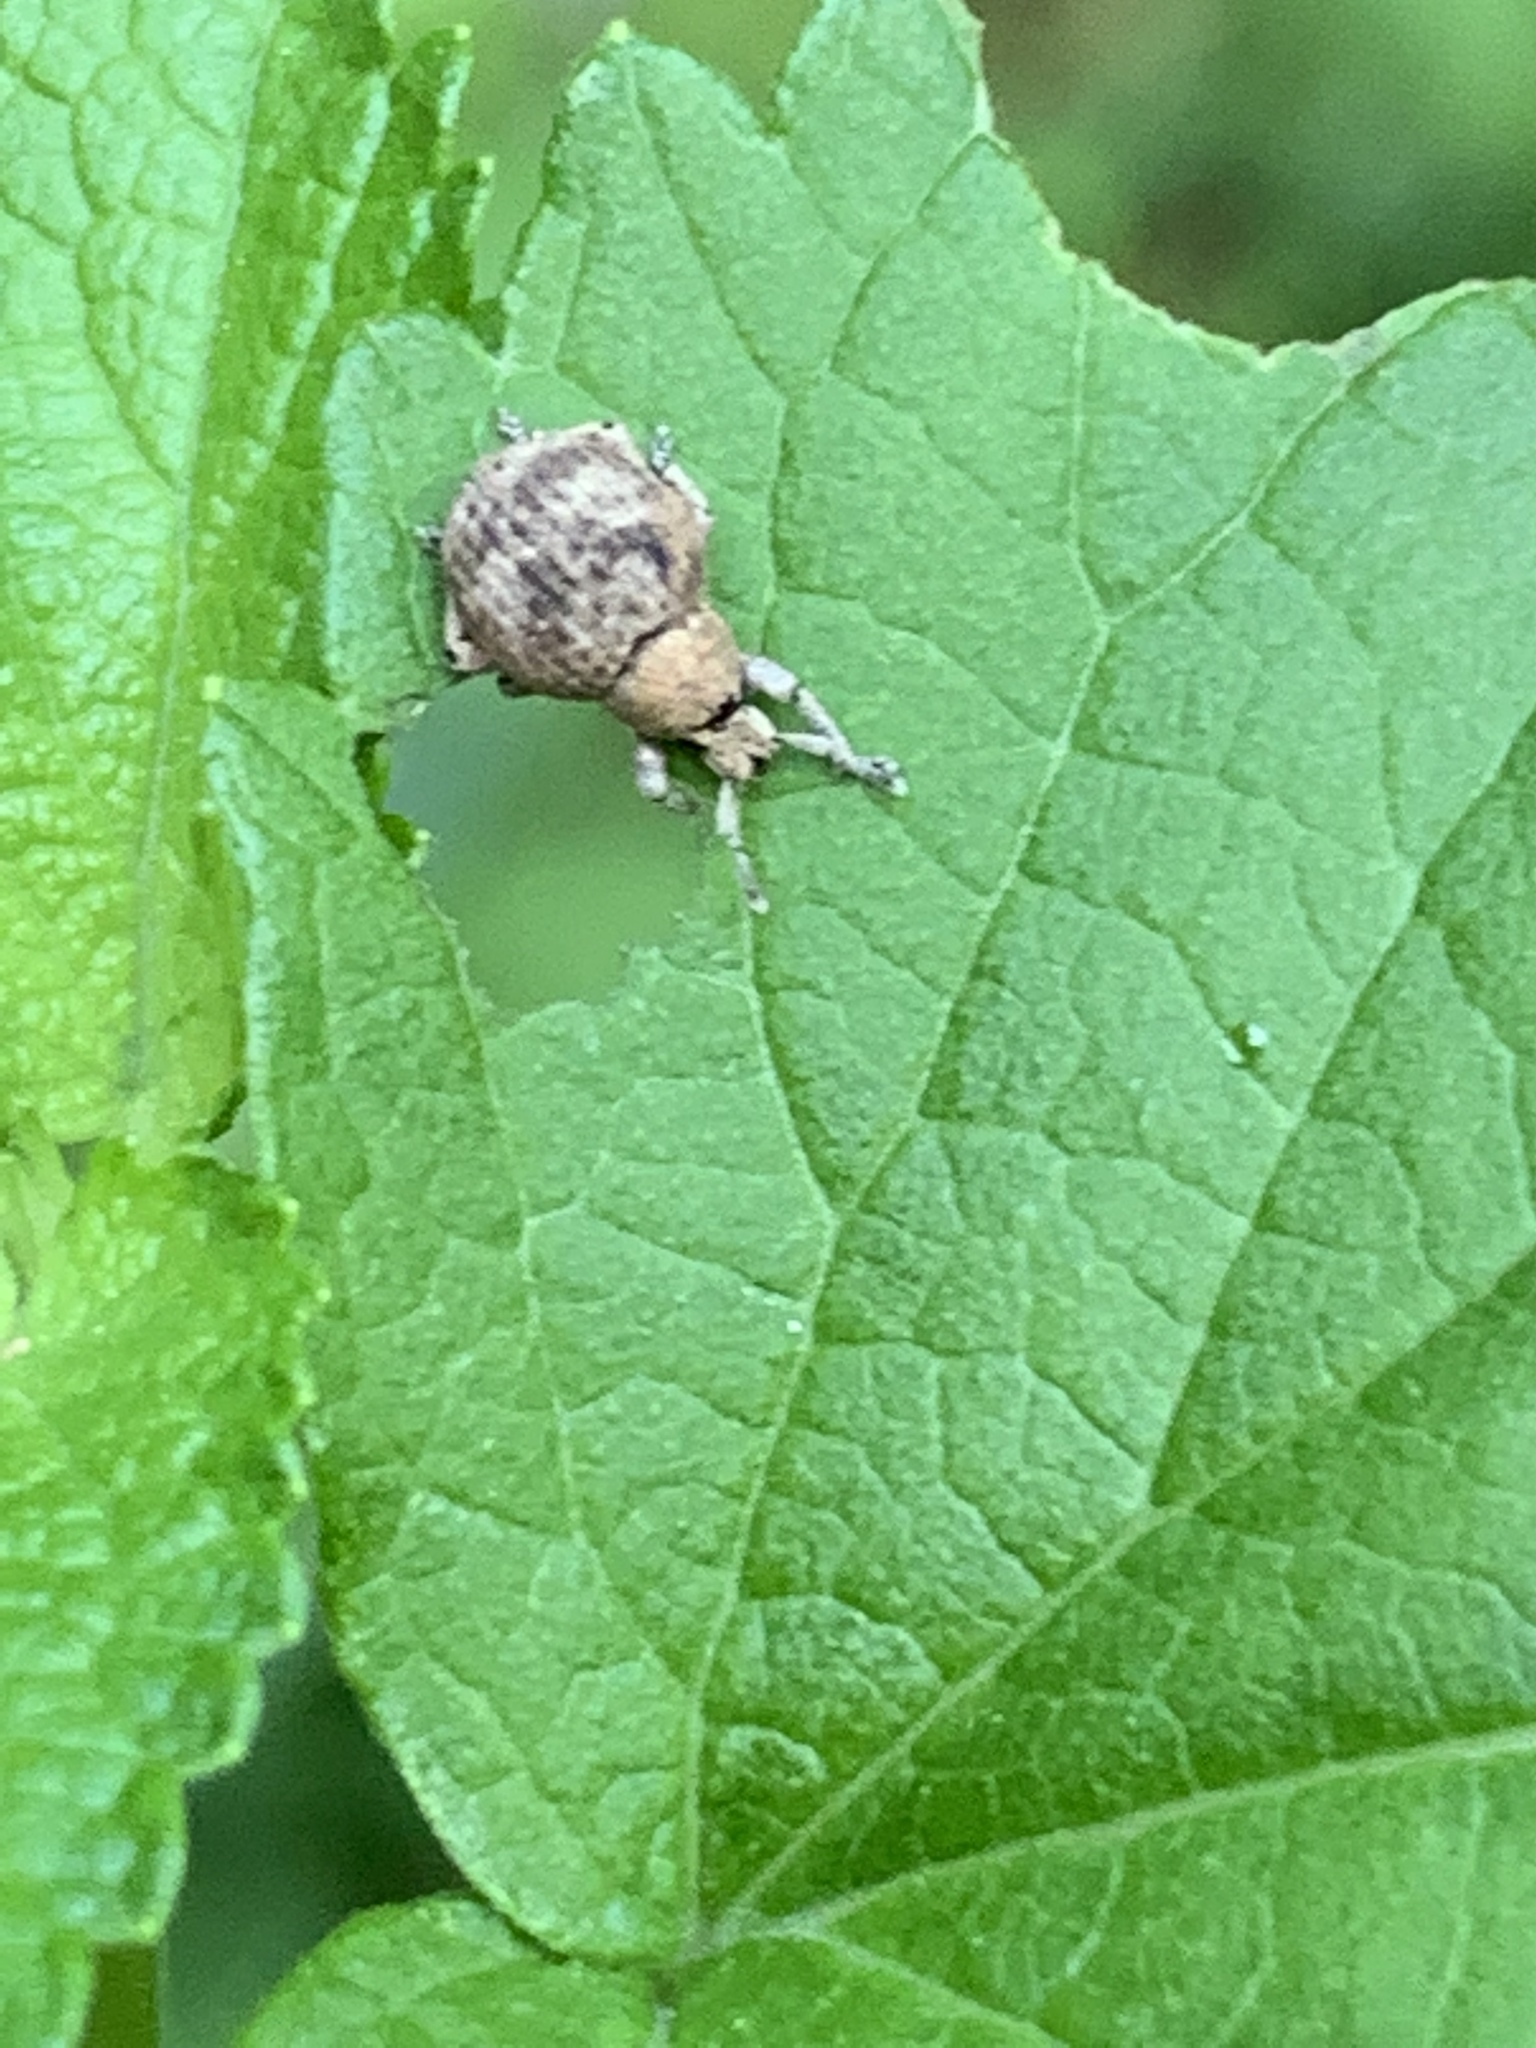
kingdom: Animalia
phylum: Arthropoda
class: Insecta
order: Coleoptera
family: Curculionidae
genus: Pseudocneorhinus
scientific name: Pseudocneorhinus bifasciatus
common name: Two-banded japanese weevil
